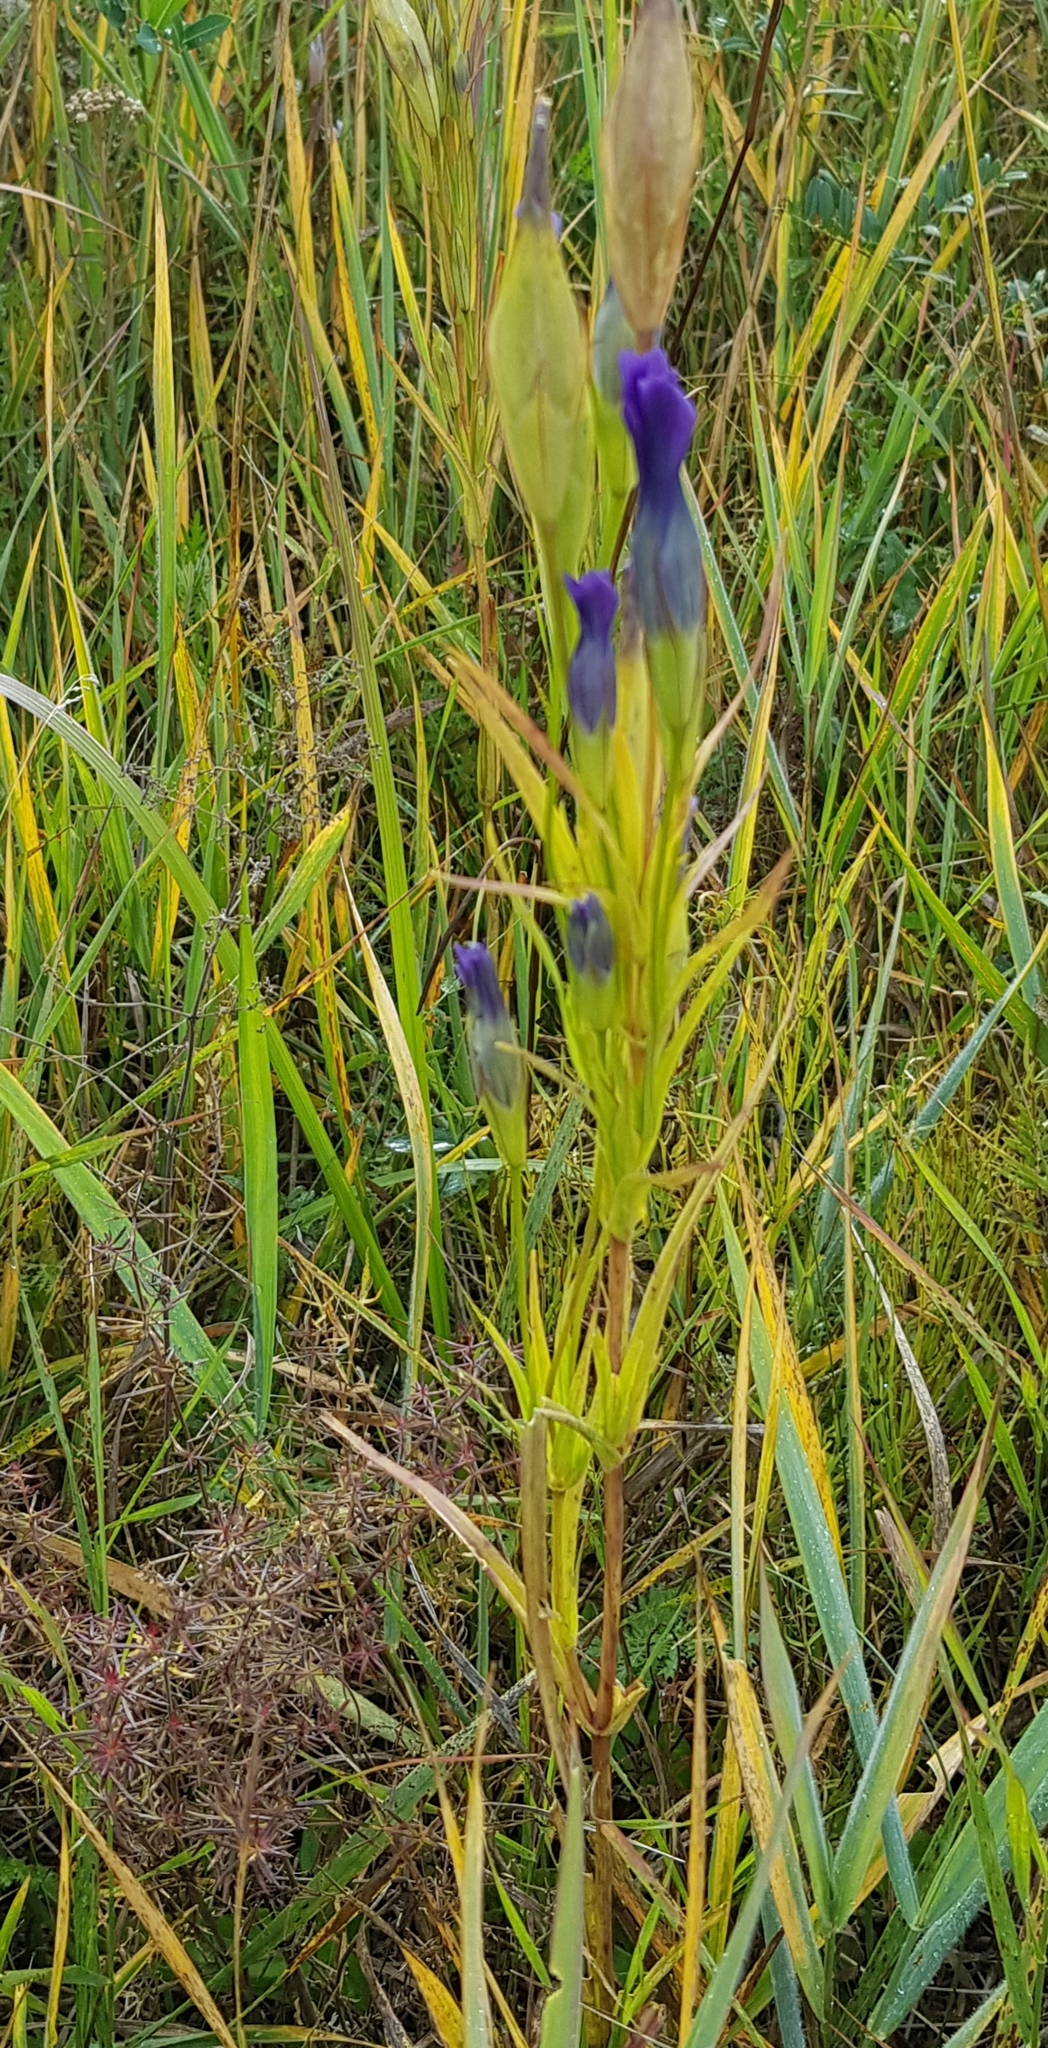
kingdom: Plantae
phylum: Tracheophyta
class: Magnoliopsida
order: Gentianales
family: Gentianaceae
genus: Gentianopsis
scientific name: Gentianopsis barbata
